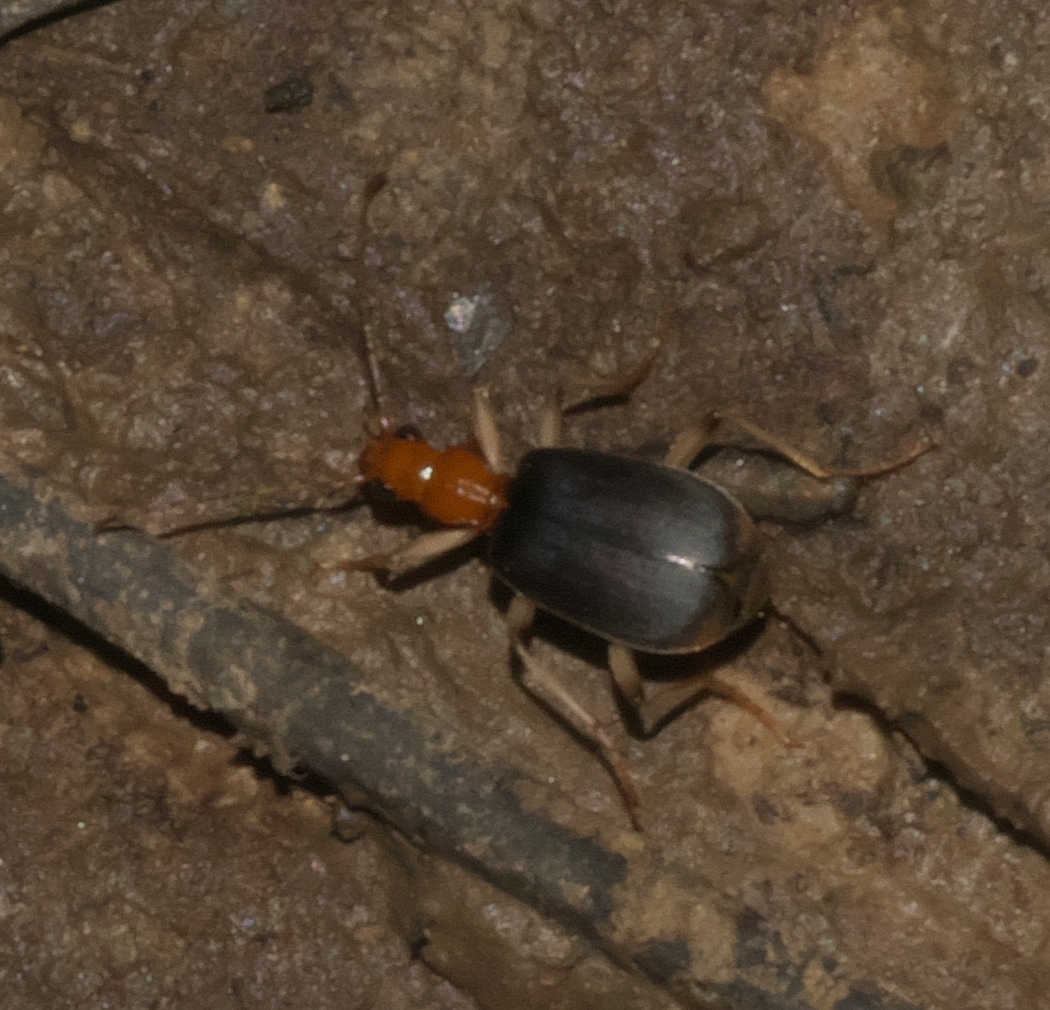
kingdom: Animalia
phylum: Arthropoda
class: Insecta
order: Coleoptera
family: Carabidae
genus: Brachinus
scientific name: Brachinus adustipennis
